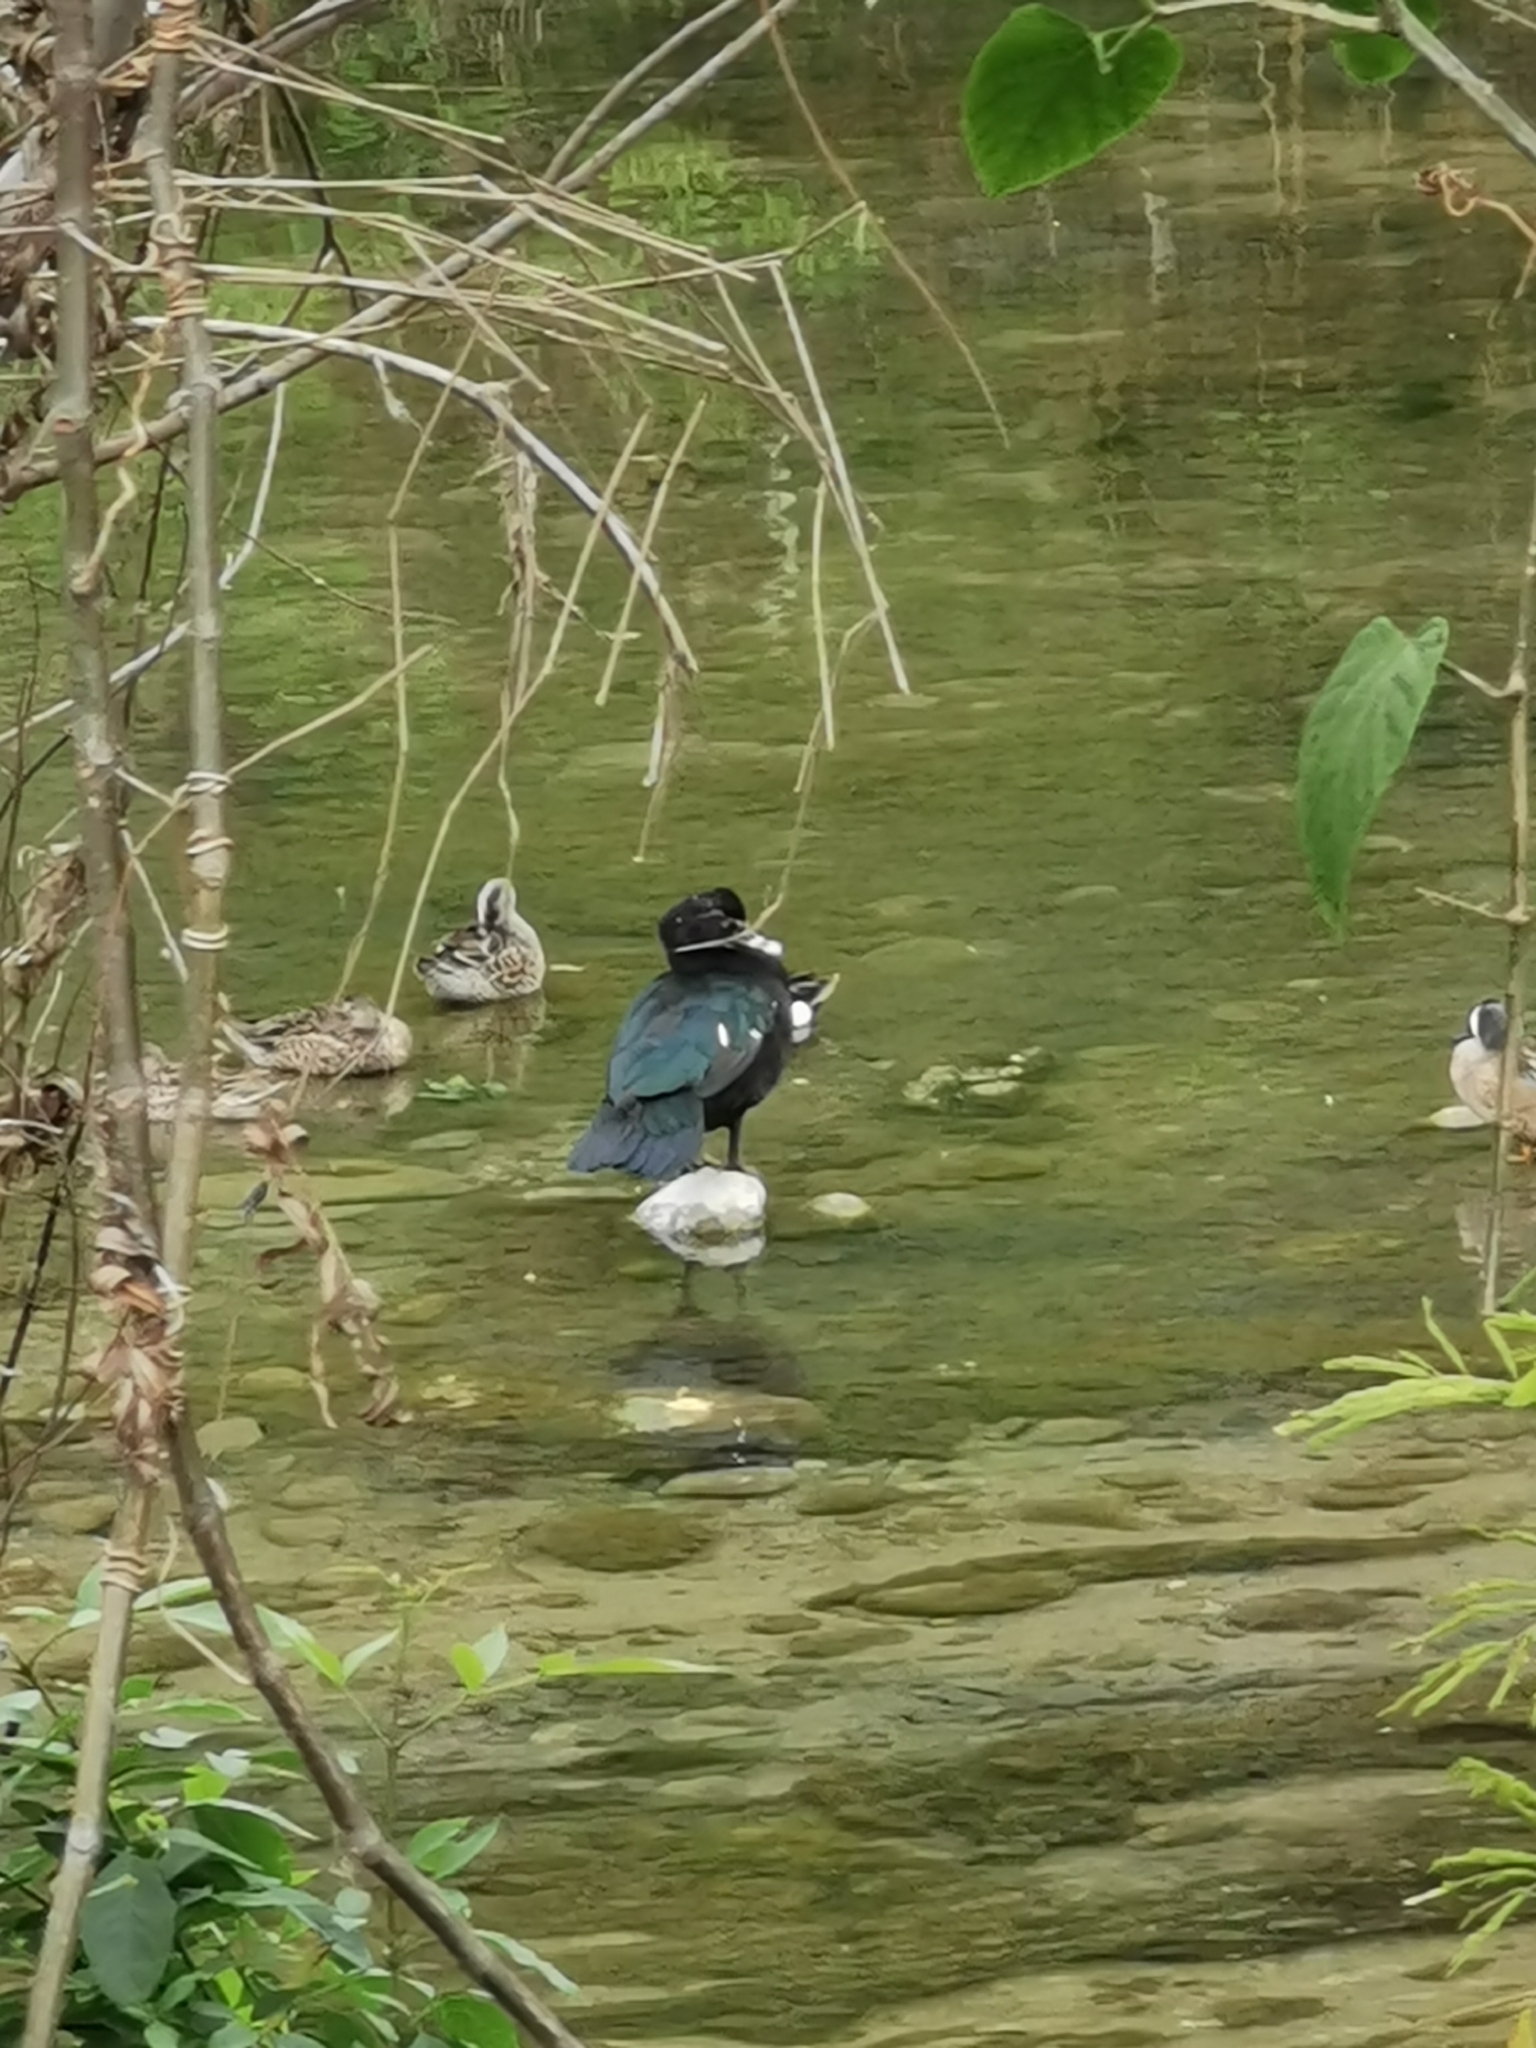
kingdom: Animalia
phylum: Chordata
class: Aves
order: Anseriformes
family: Anatidae
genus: Cairina
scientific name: Cairina moschata
